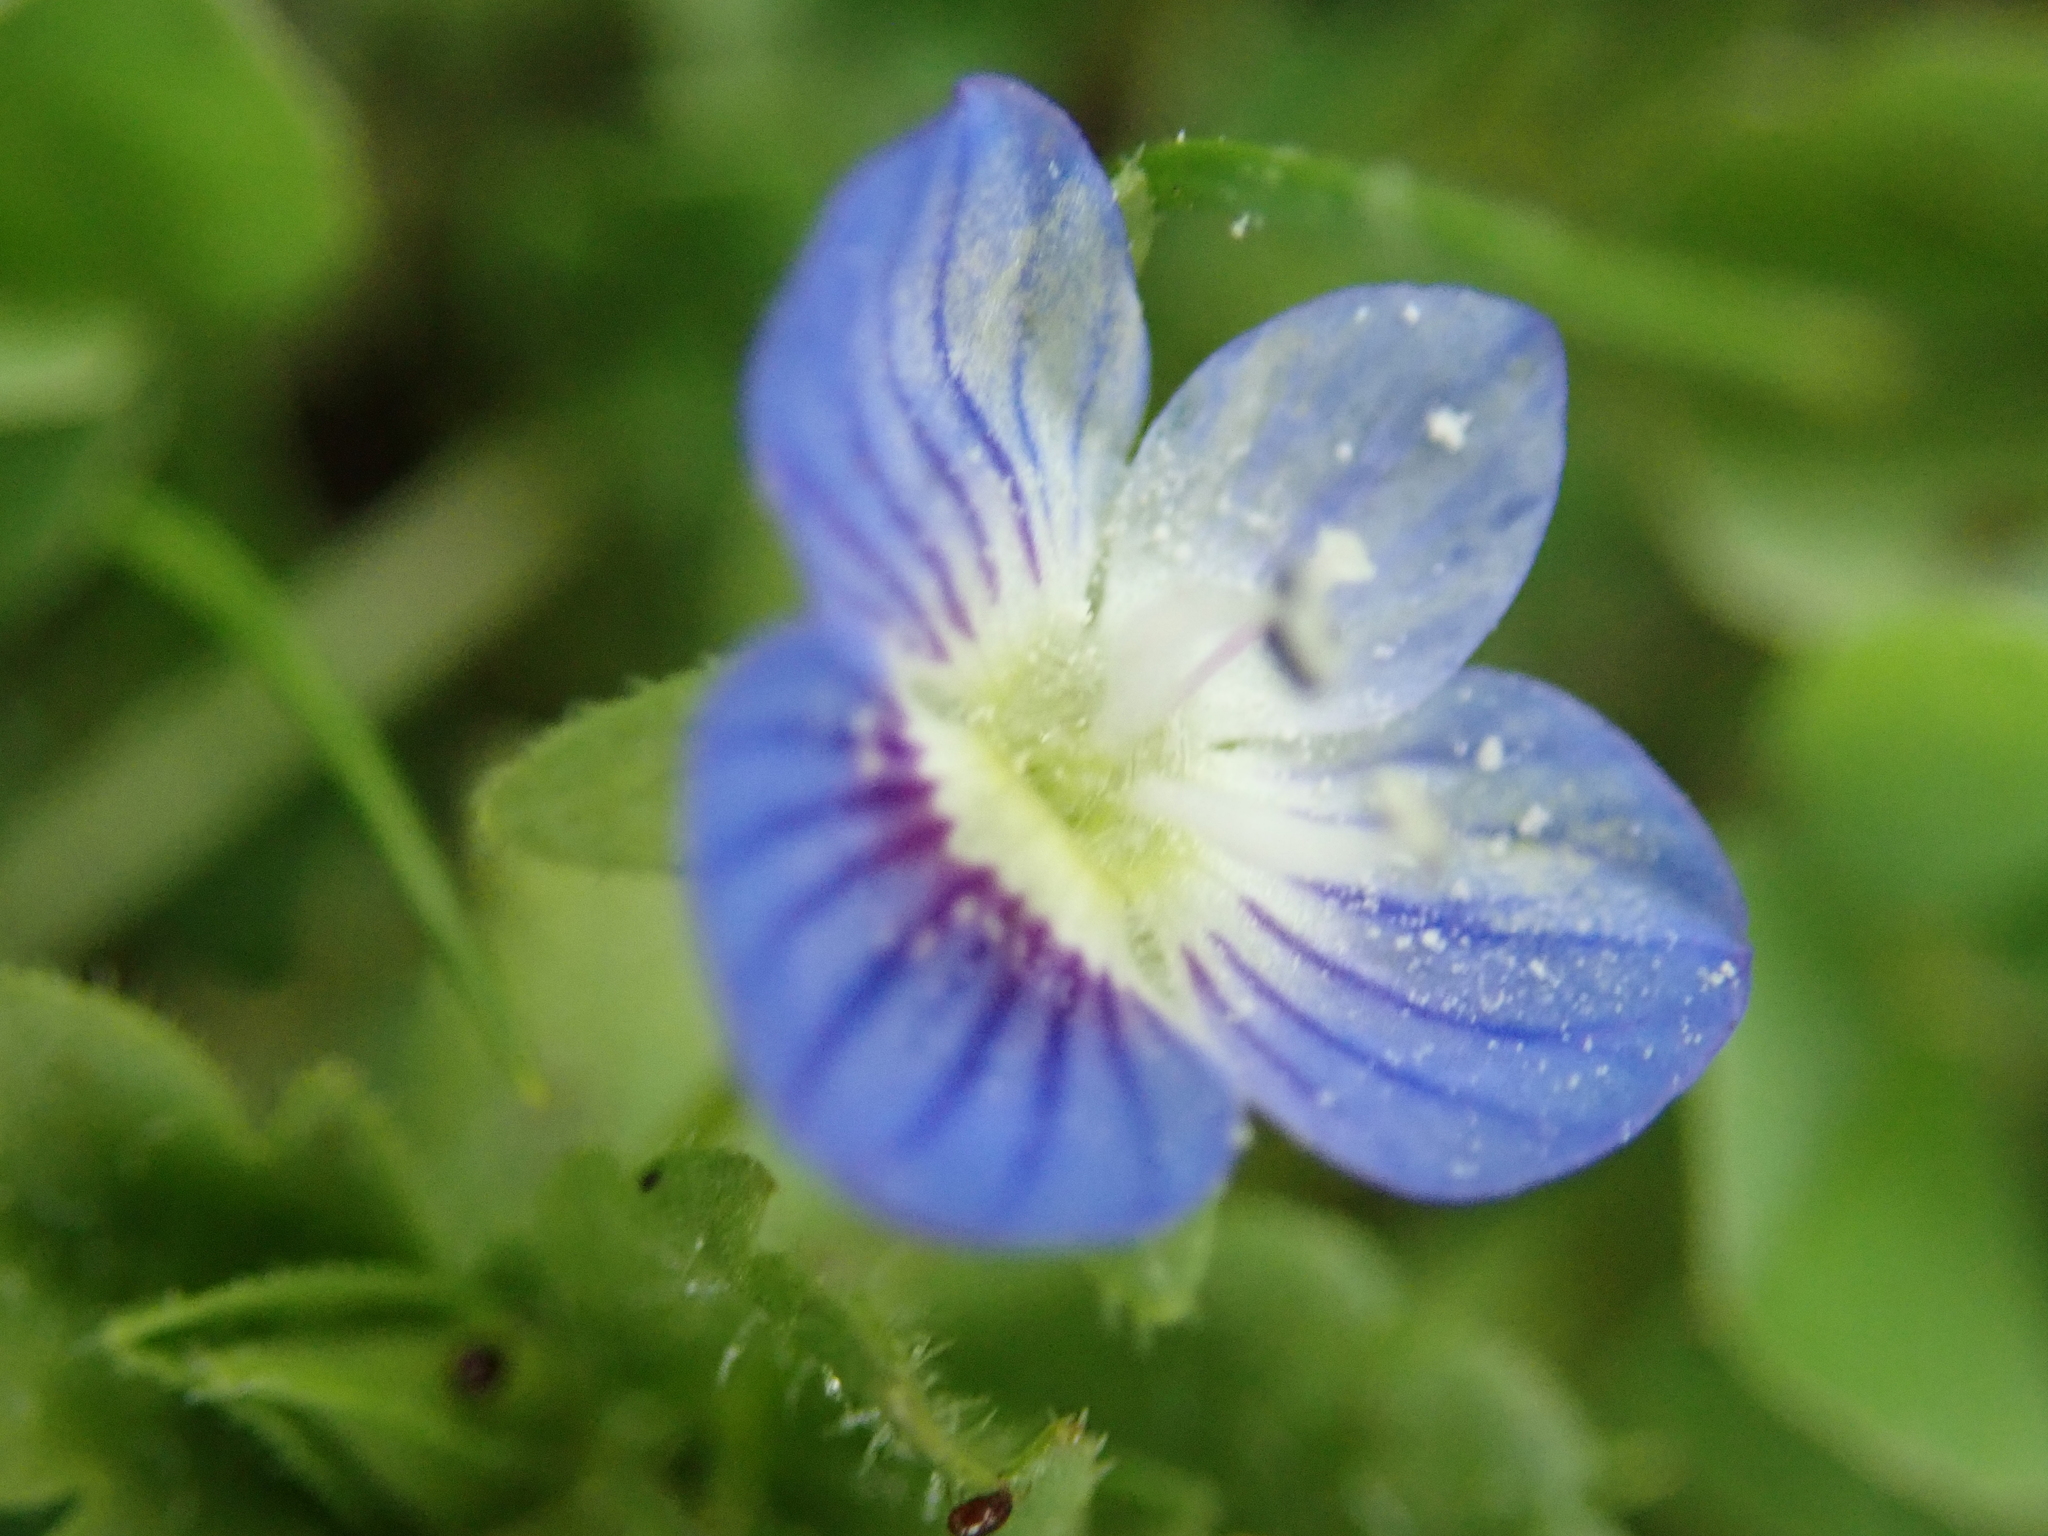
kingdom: Plantae
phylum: Tracheophyta
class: Magnoliopsida
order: Lamiales
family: Plantaginaceae
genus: Veronica
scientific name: Veronica persica
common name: Common field-speedwell
